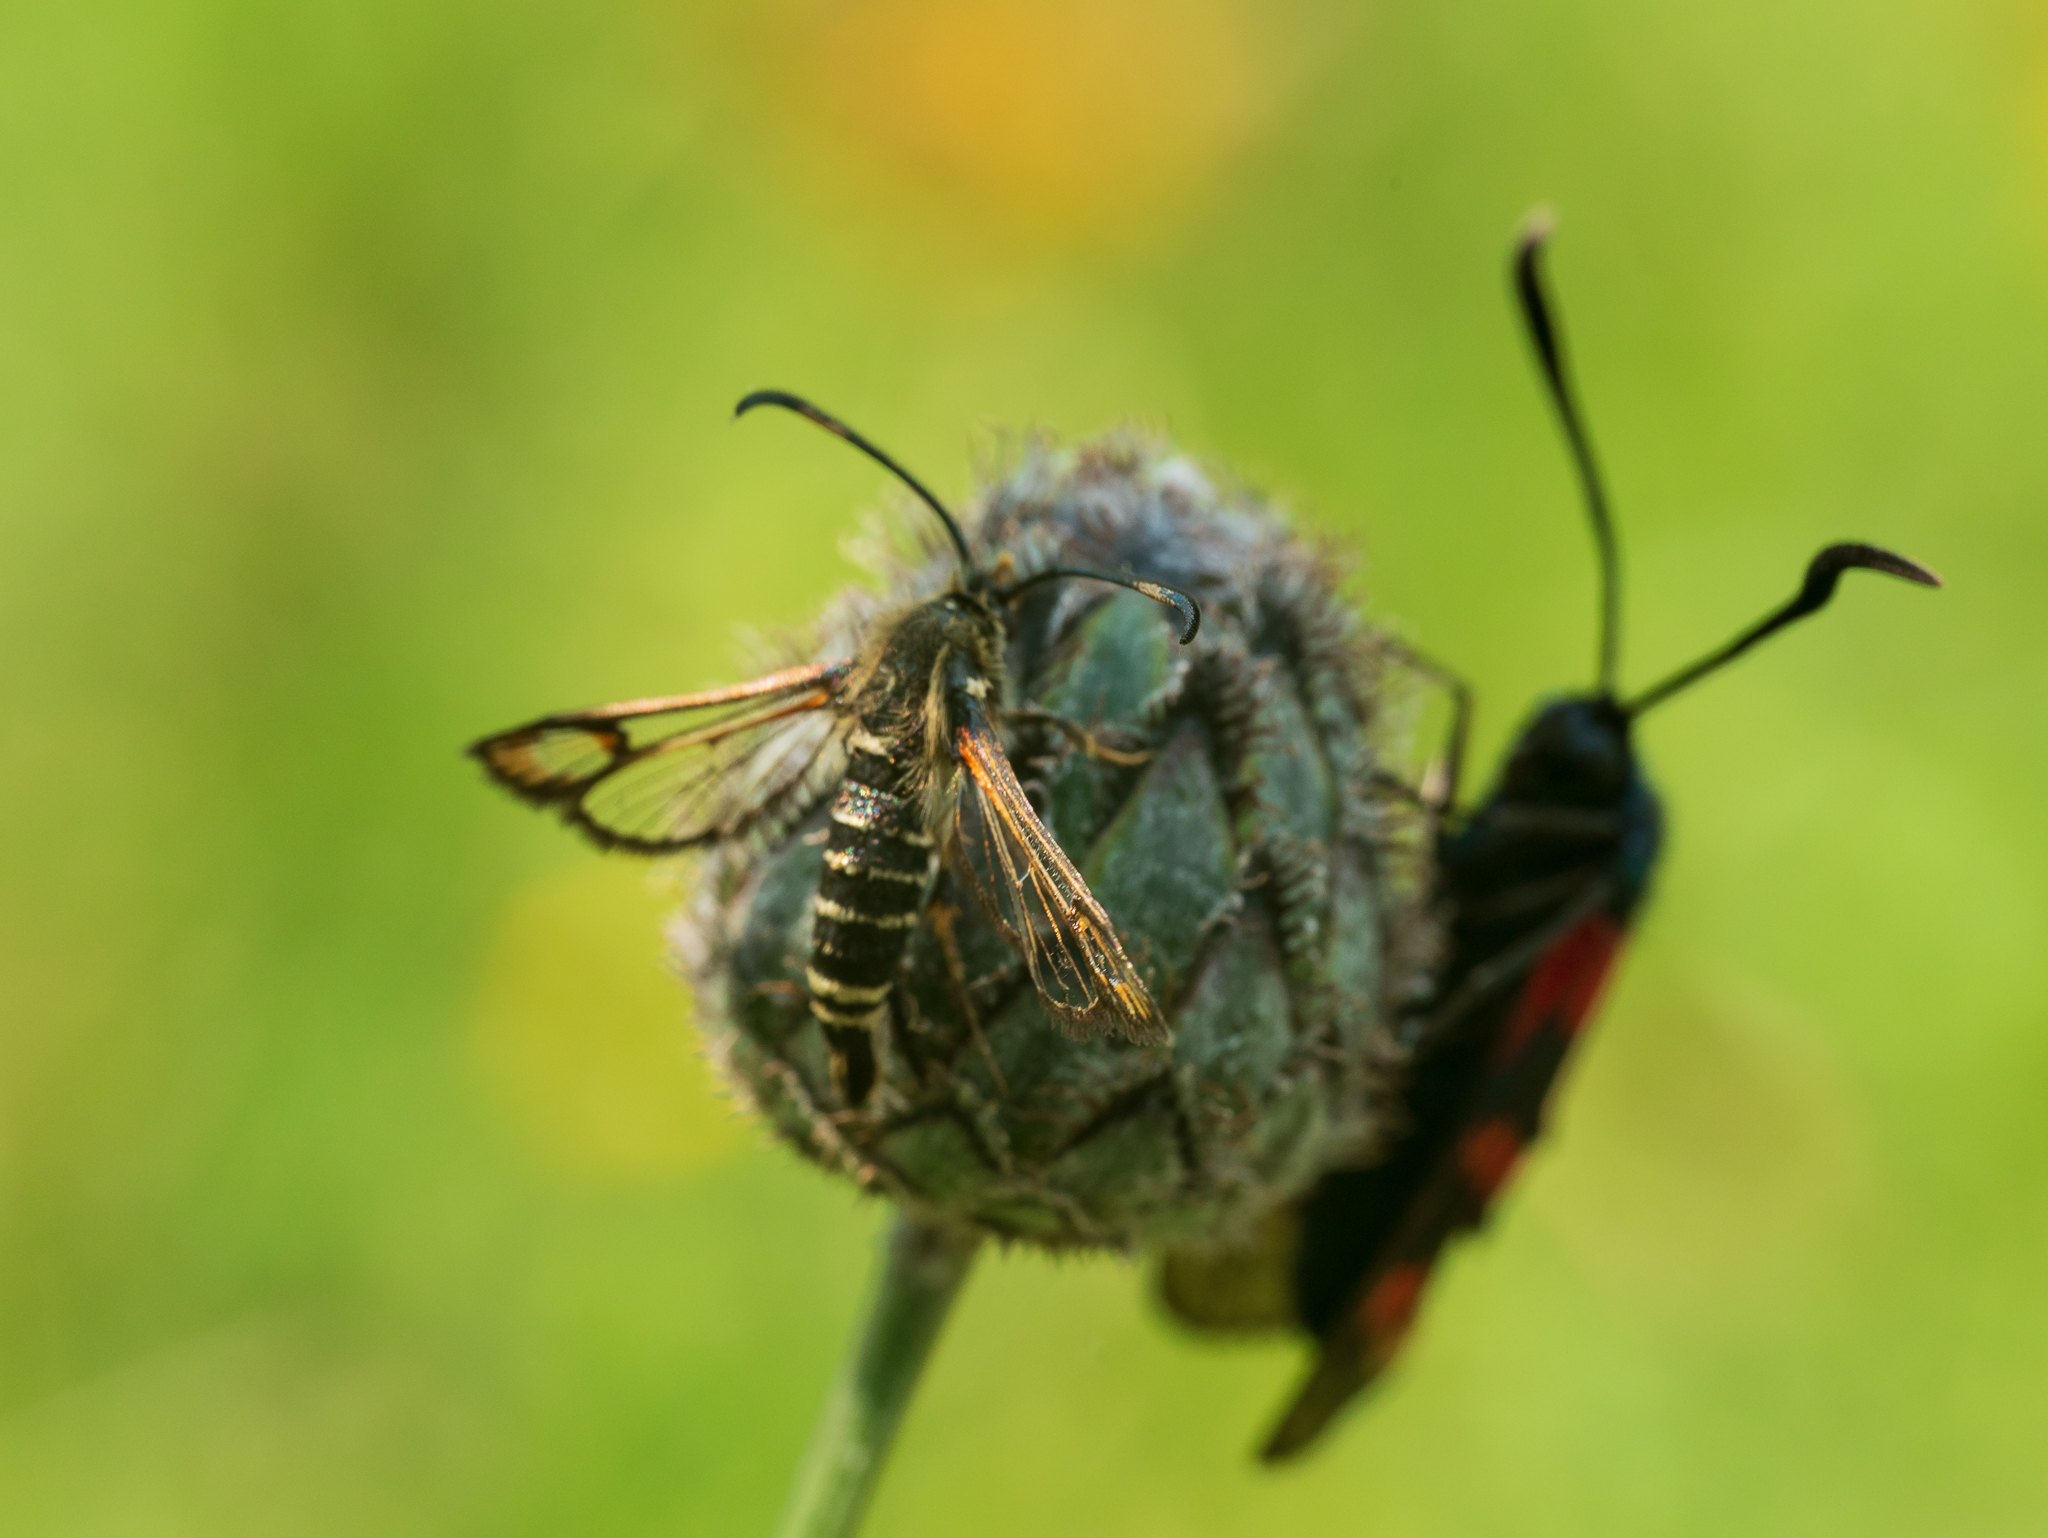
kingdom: Animalia
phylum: Arthropoda
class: Insecta
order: Lepidoptera
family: Sesiidae
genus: Bembecia
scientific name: Bembecia ichneumoniformis
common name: Six-belted clearwing
